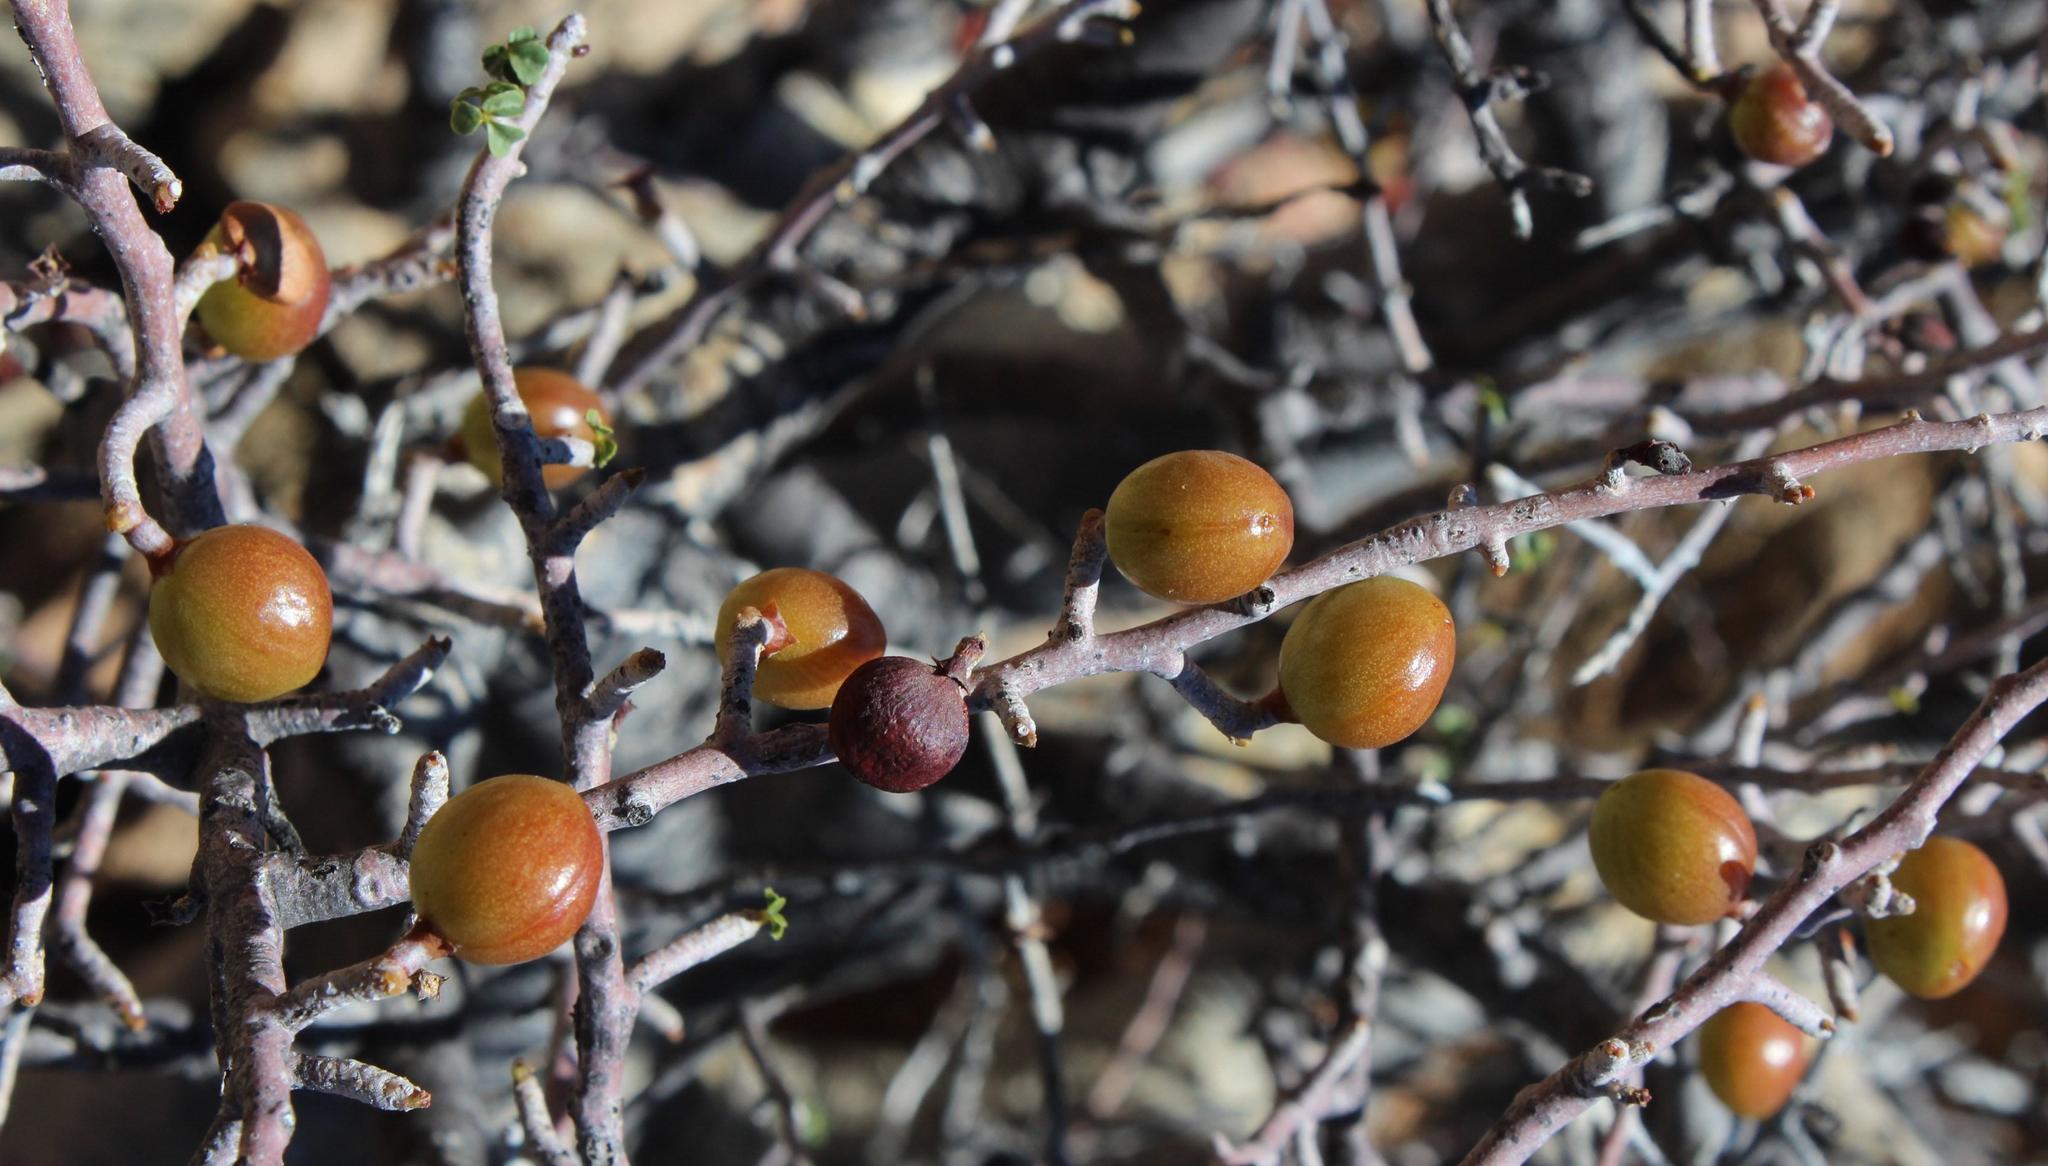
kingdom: Plantae
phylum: Tracheophyta
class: Magnoliopsida
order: Sapindales
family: Burseraceae
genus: Commiphora
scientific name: Commiphora capensis
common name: Namaqua commiphora
